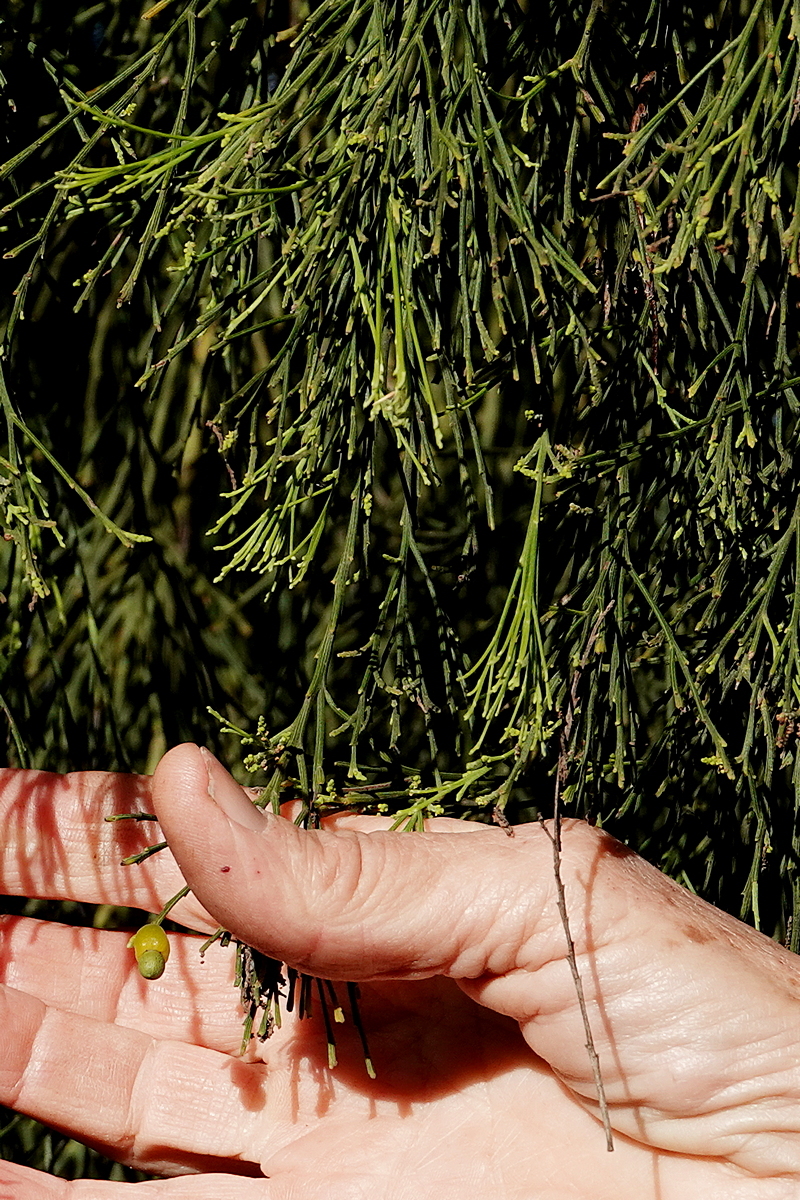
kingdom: Plantae
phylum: Tracheophyta
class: Magnoliopsida
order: Santalales
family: Santalaceae
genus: Exocarpos
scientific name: Exocarpos cupressiformis
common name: Cherry ballart
